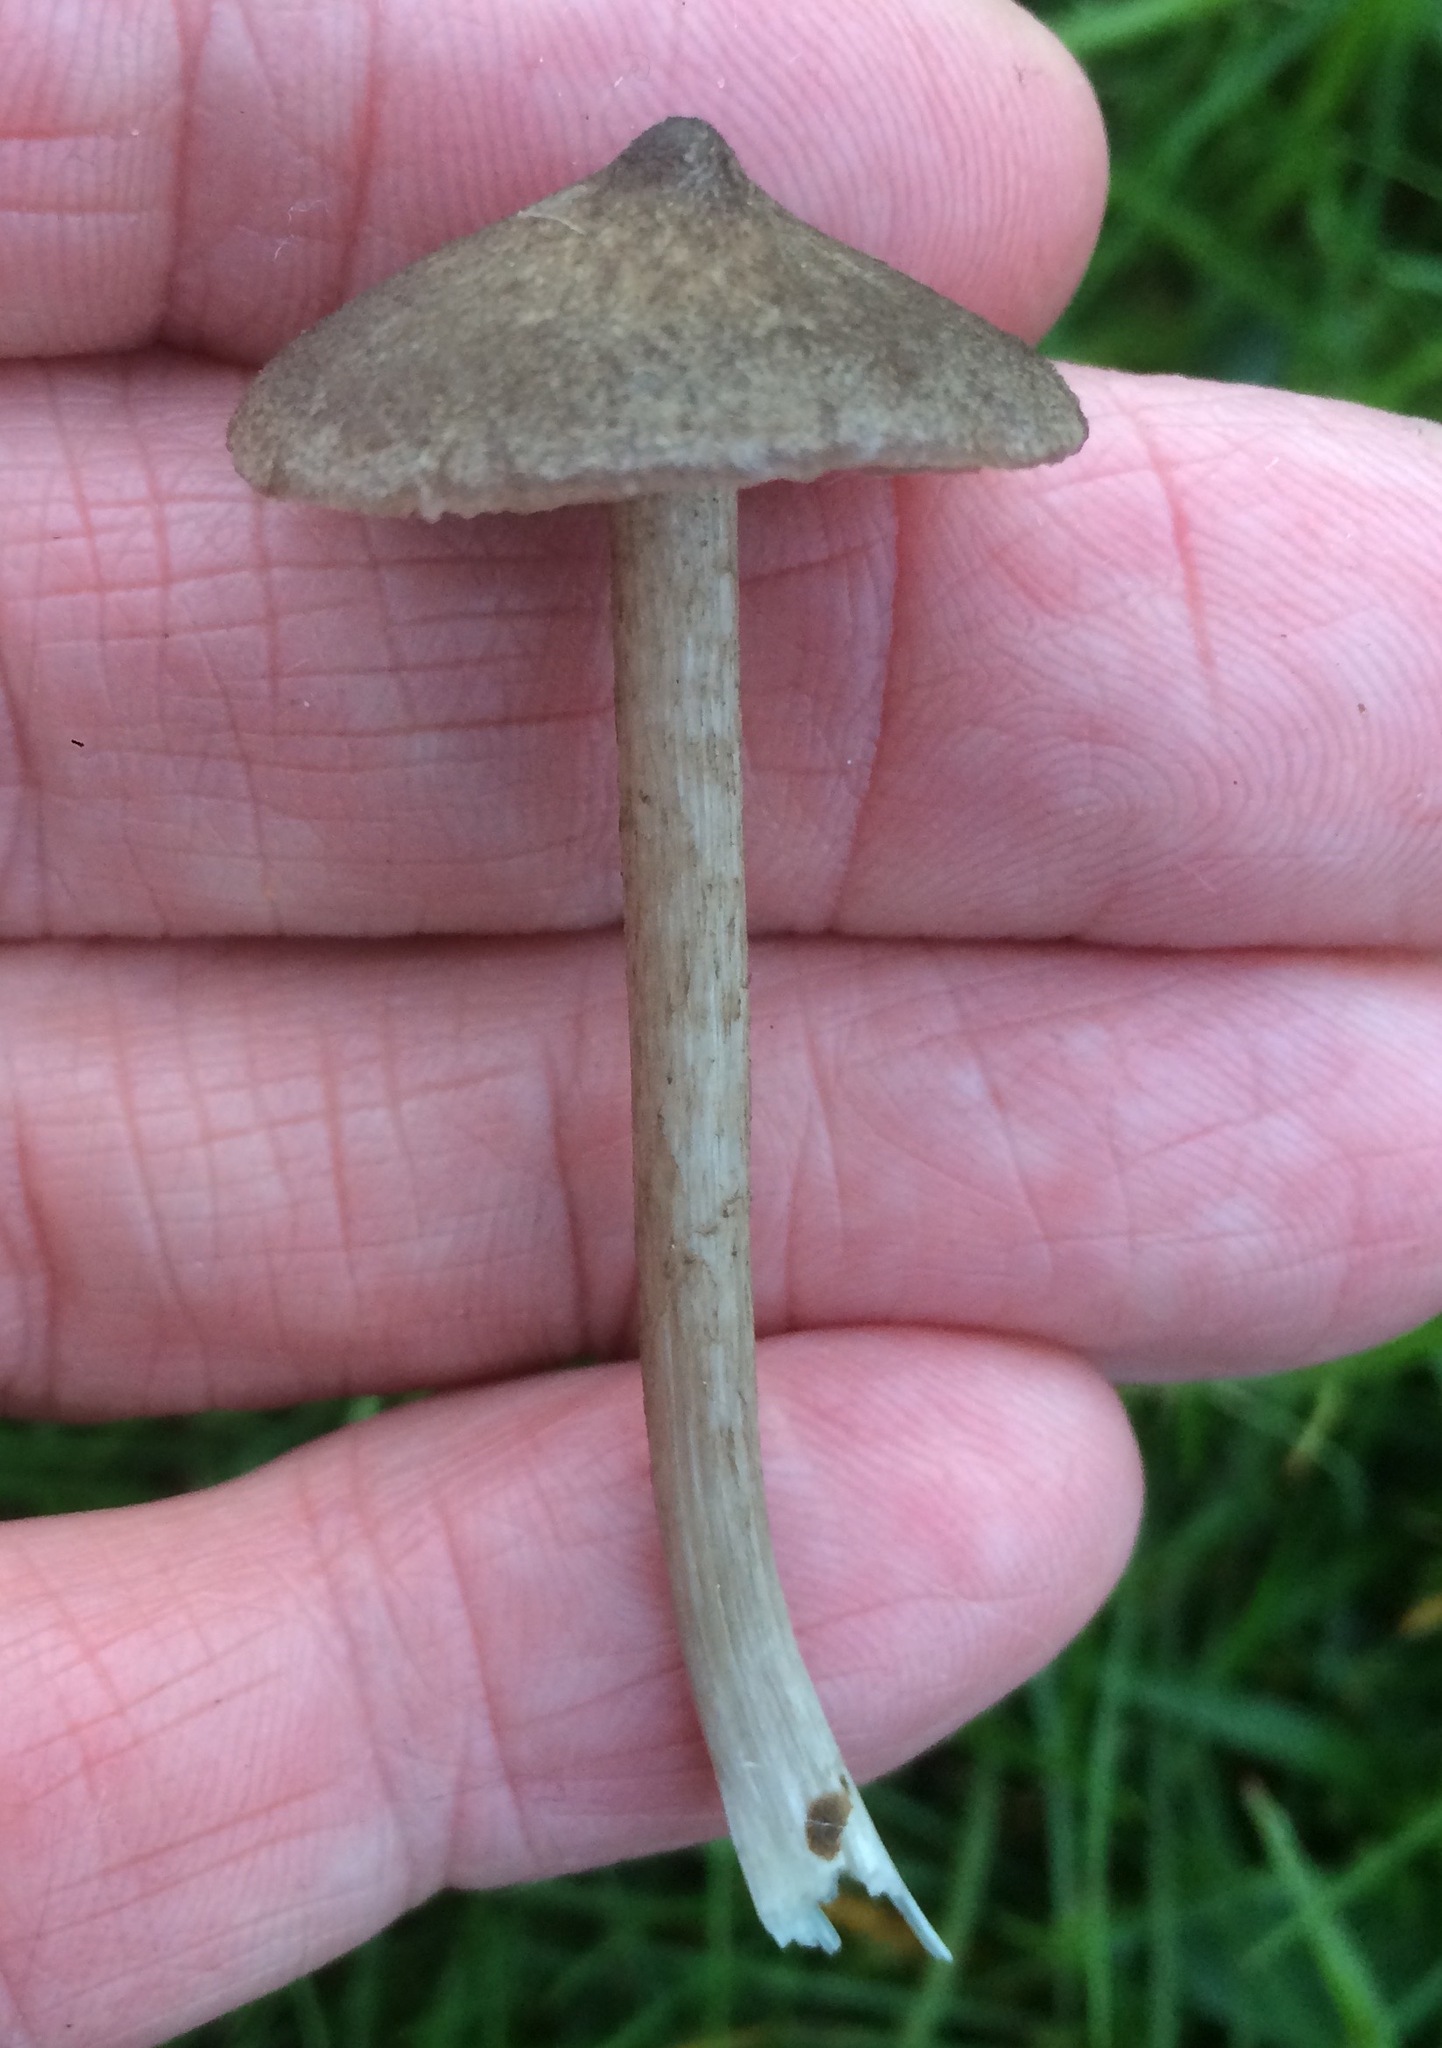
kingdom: Fungi
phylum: Basidiomycota
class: Agaricomycetes
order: Agaricales
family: Entolomataceae
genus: Entoloma
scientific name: Entoloma jubatum
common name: Sepia pinkgill
